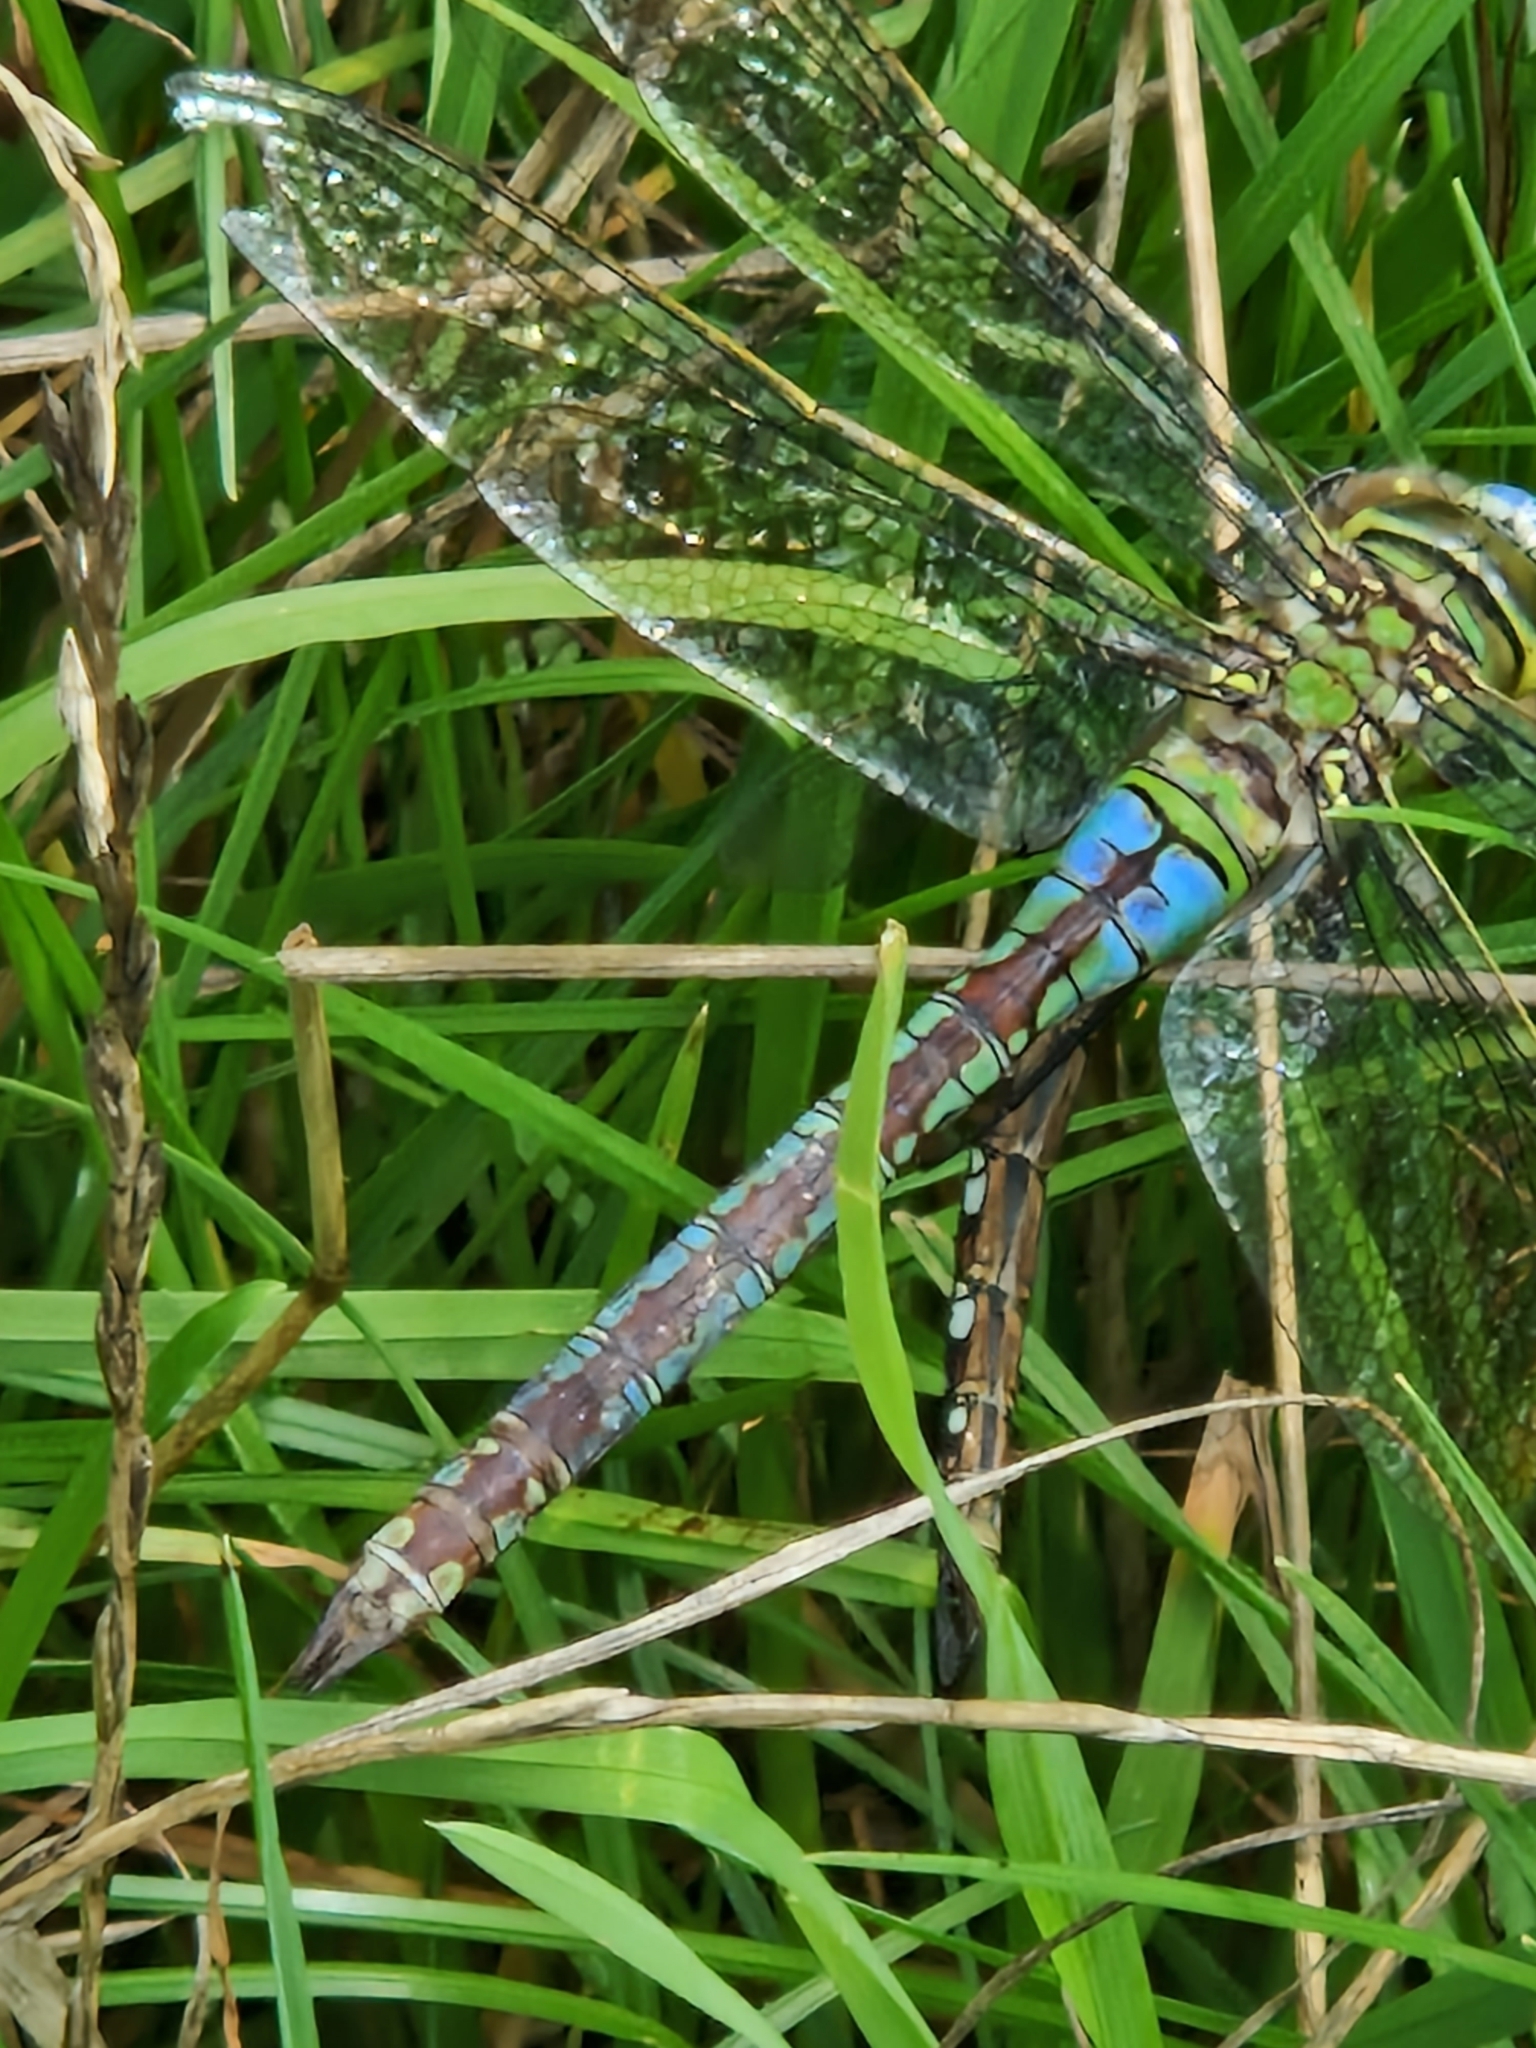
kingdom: Animalia
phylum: Arthropoda
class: Insecta
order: Odonata
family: Aeshnidae
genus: Anax
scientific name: Anax imperator
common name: Emperor dragonfly
